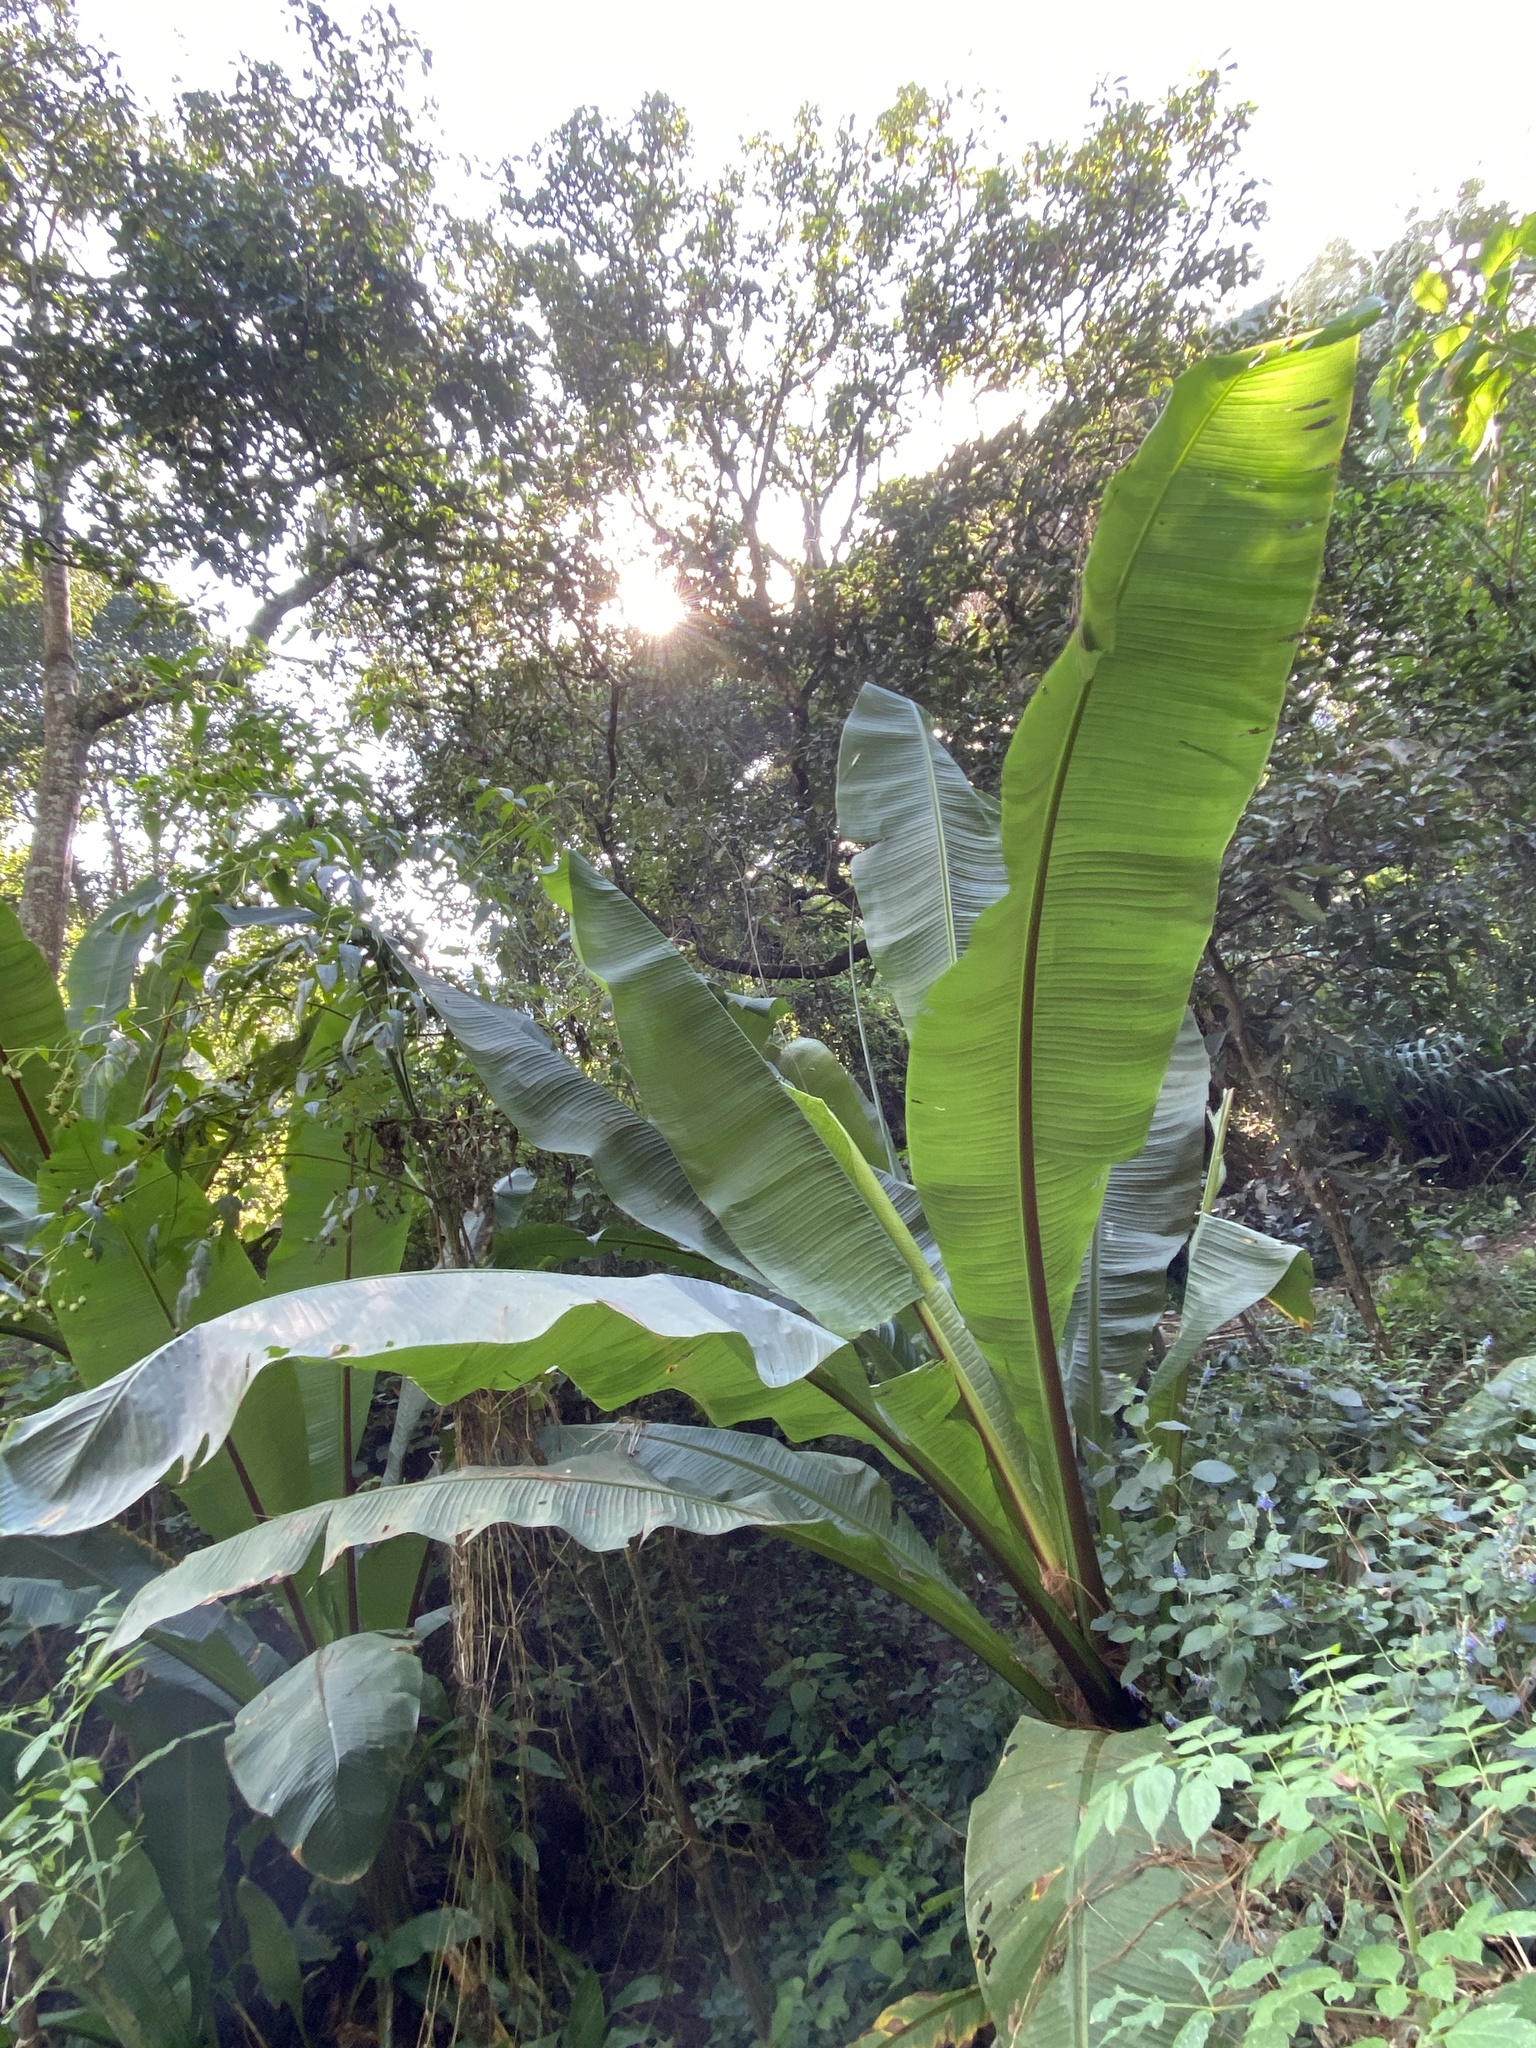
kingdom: Plantae
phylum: Tracheophyta
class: Liliopsida
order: Zingiberales
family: Musaceae
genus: Ensete
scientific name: Ensete ventricosum
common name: Abyssinian banana
